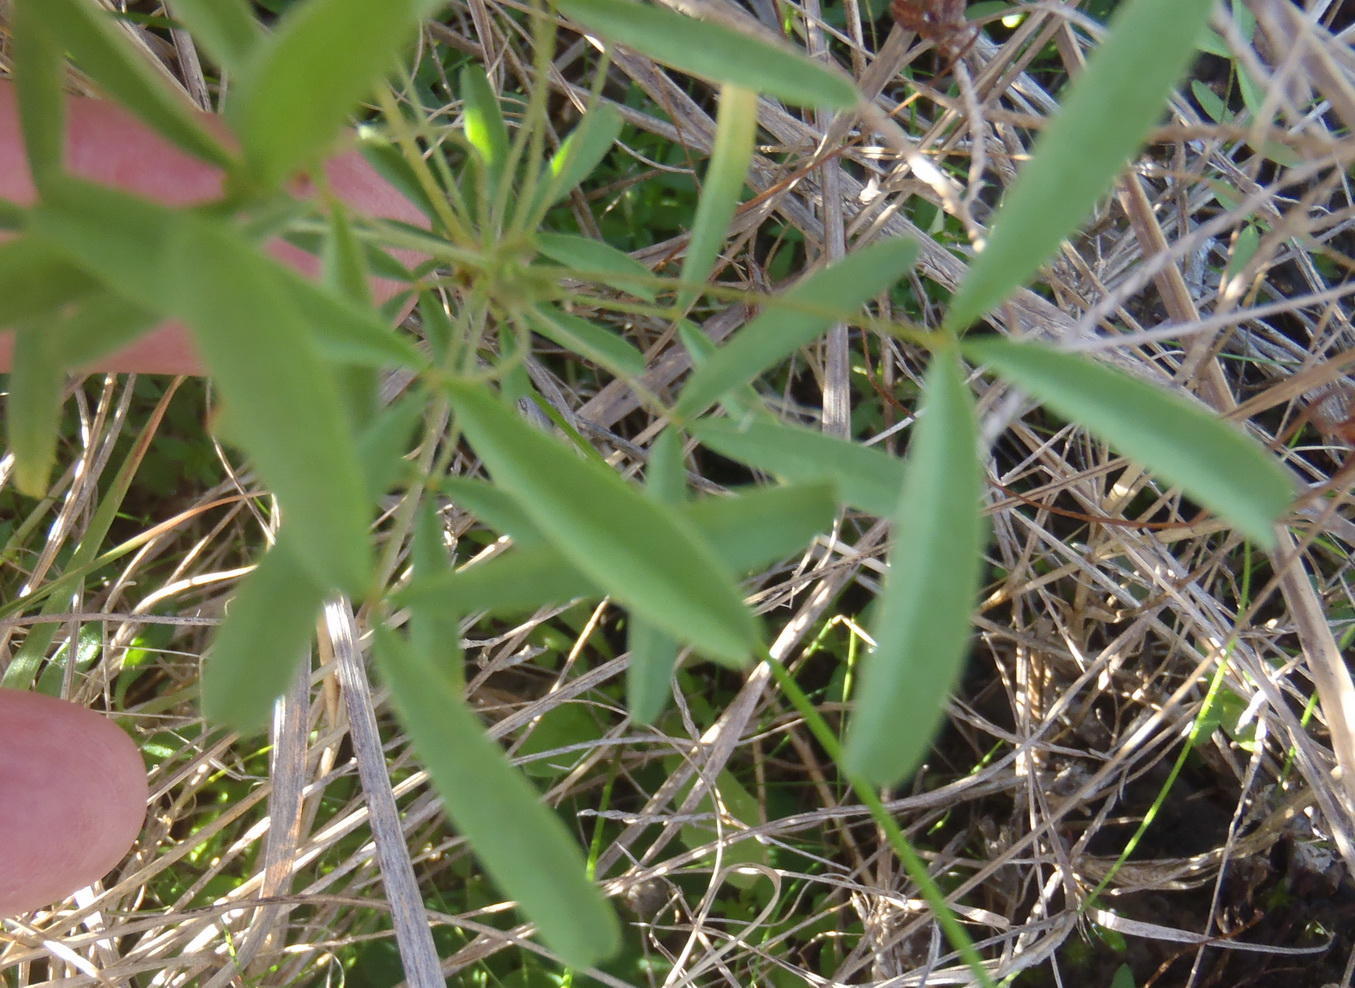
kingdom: Plantae
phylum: Tracheophyta
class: Magnoliopsida
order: Oxalidales
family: Oxalidaceae
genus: Oxalis
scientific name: Oxalis ciliaris
